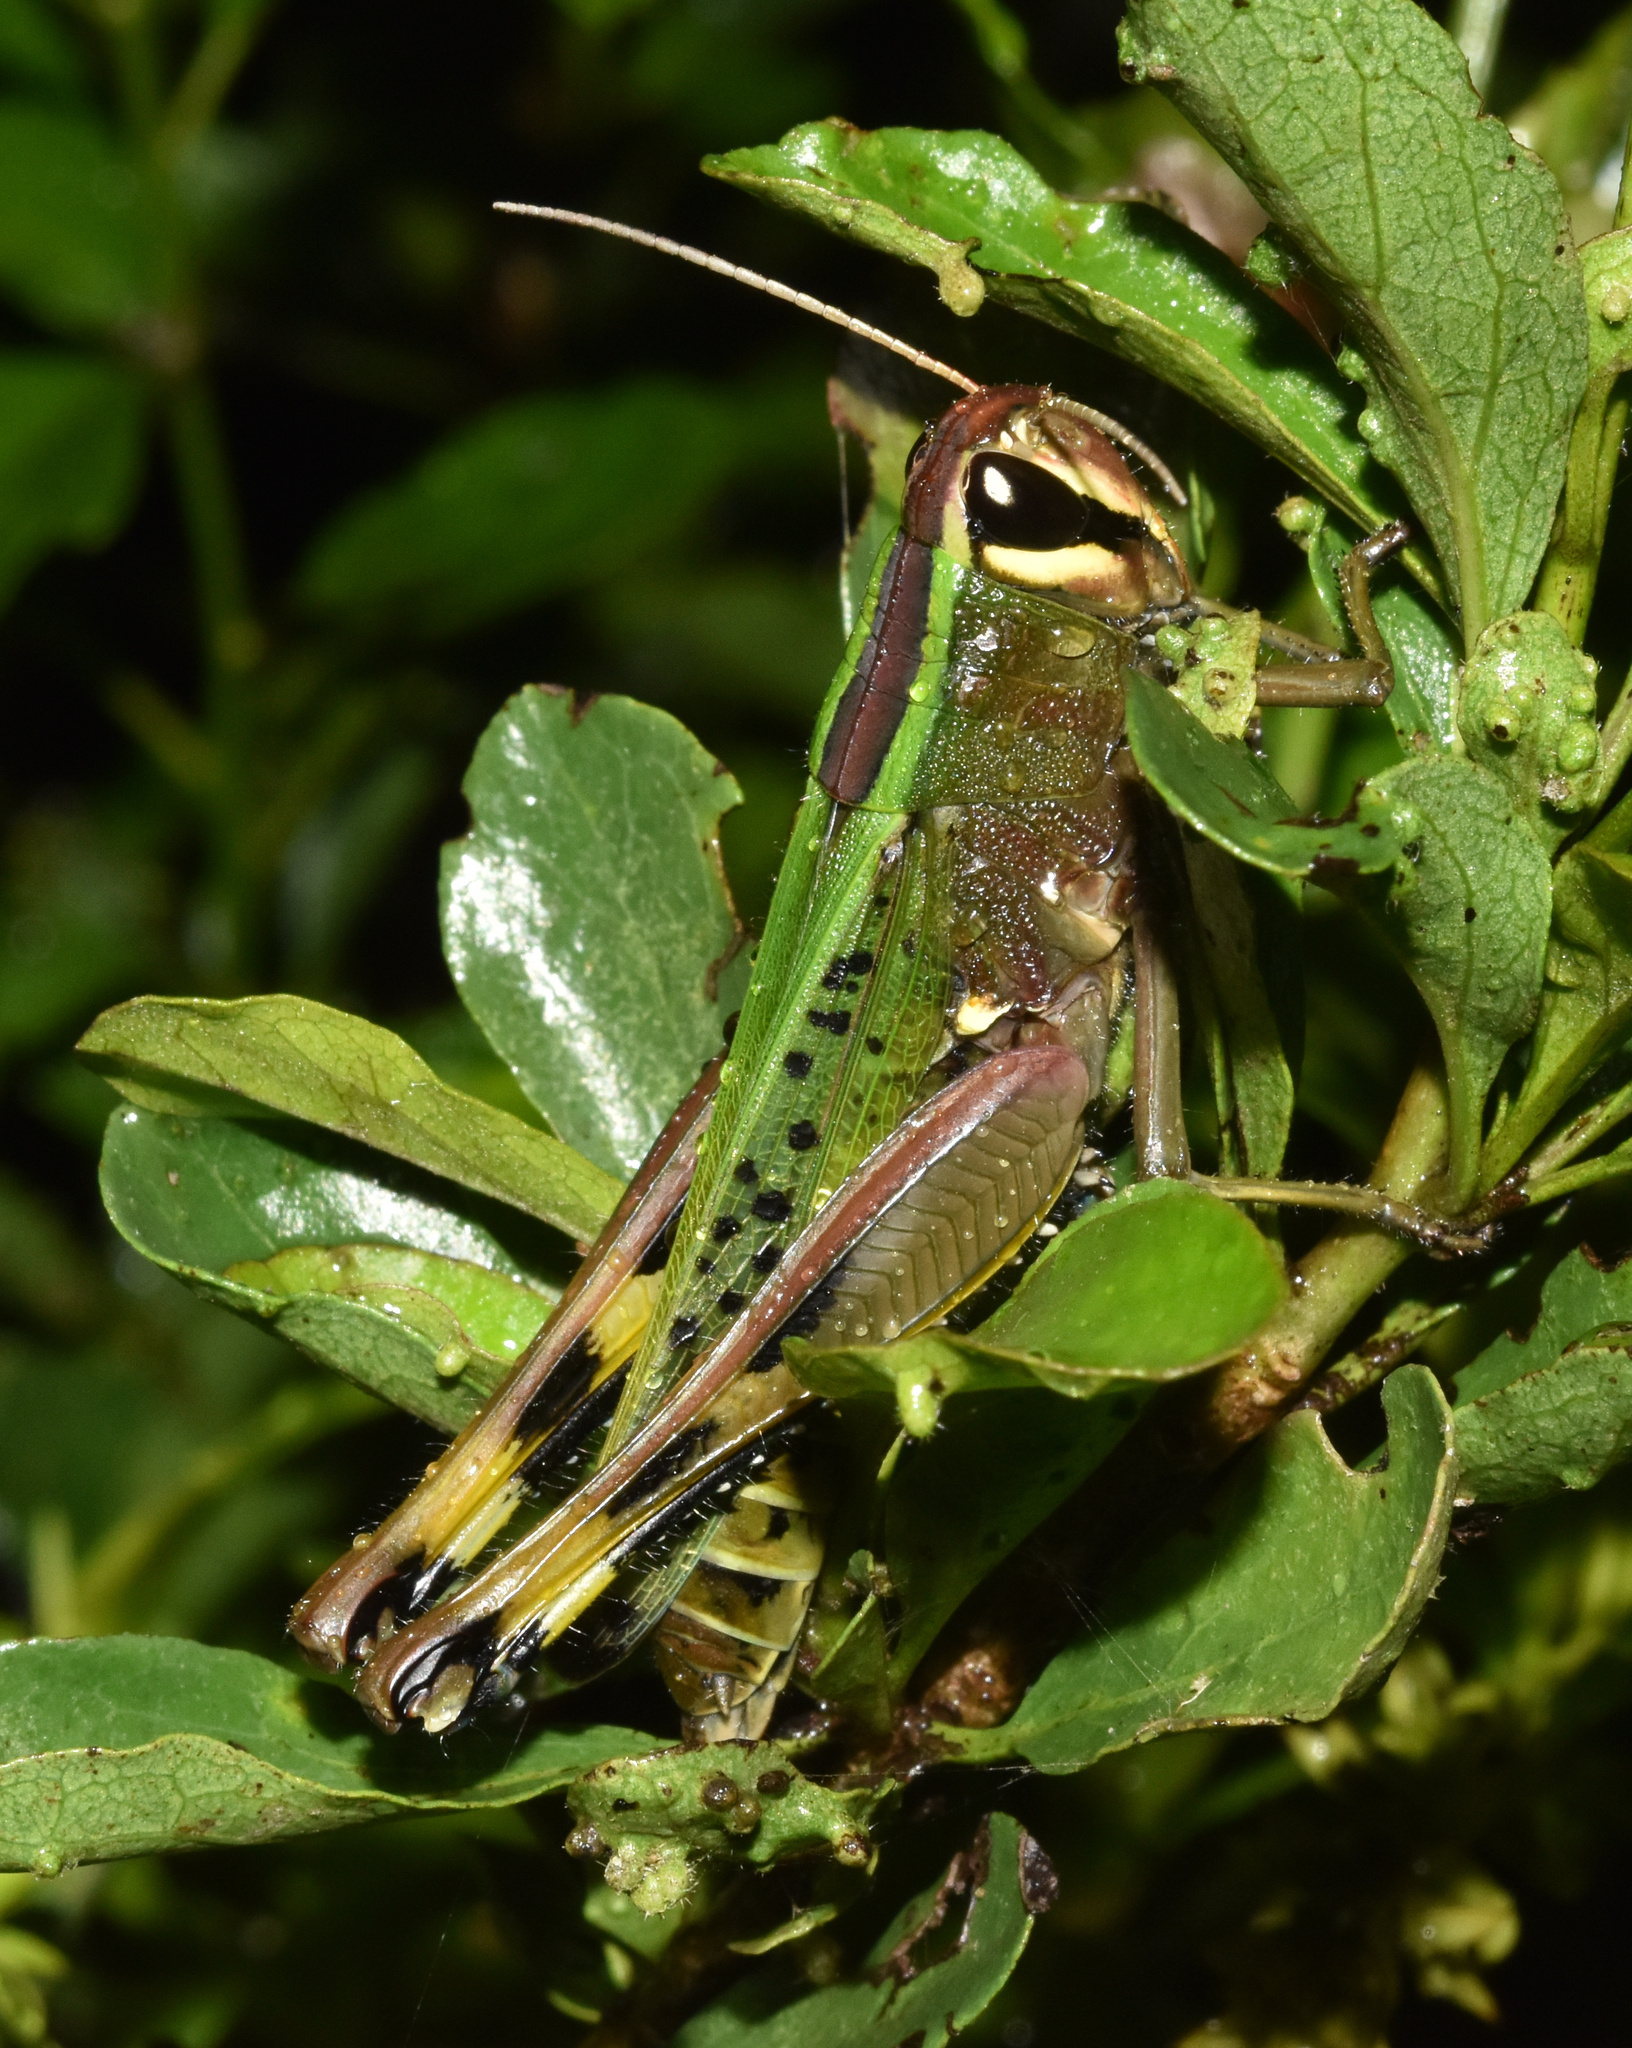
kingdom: Animalia
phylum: Arthropoda
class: Insecta
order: Orthoptera
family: Acrididae
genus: Heteracris
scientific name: Heteracris speciosa
